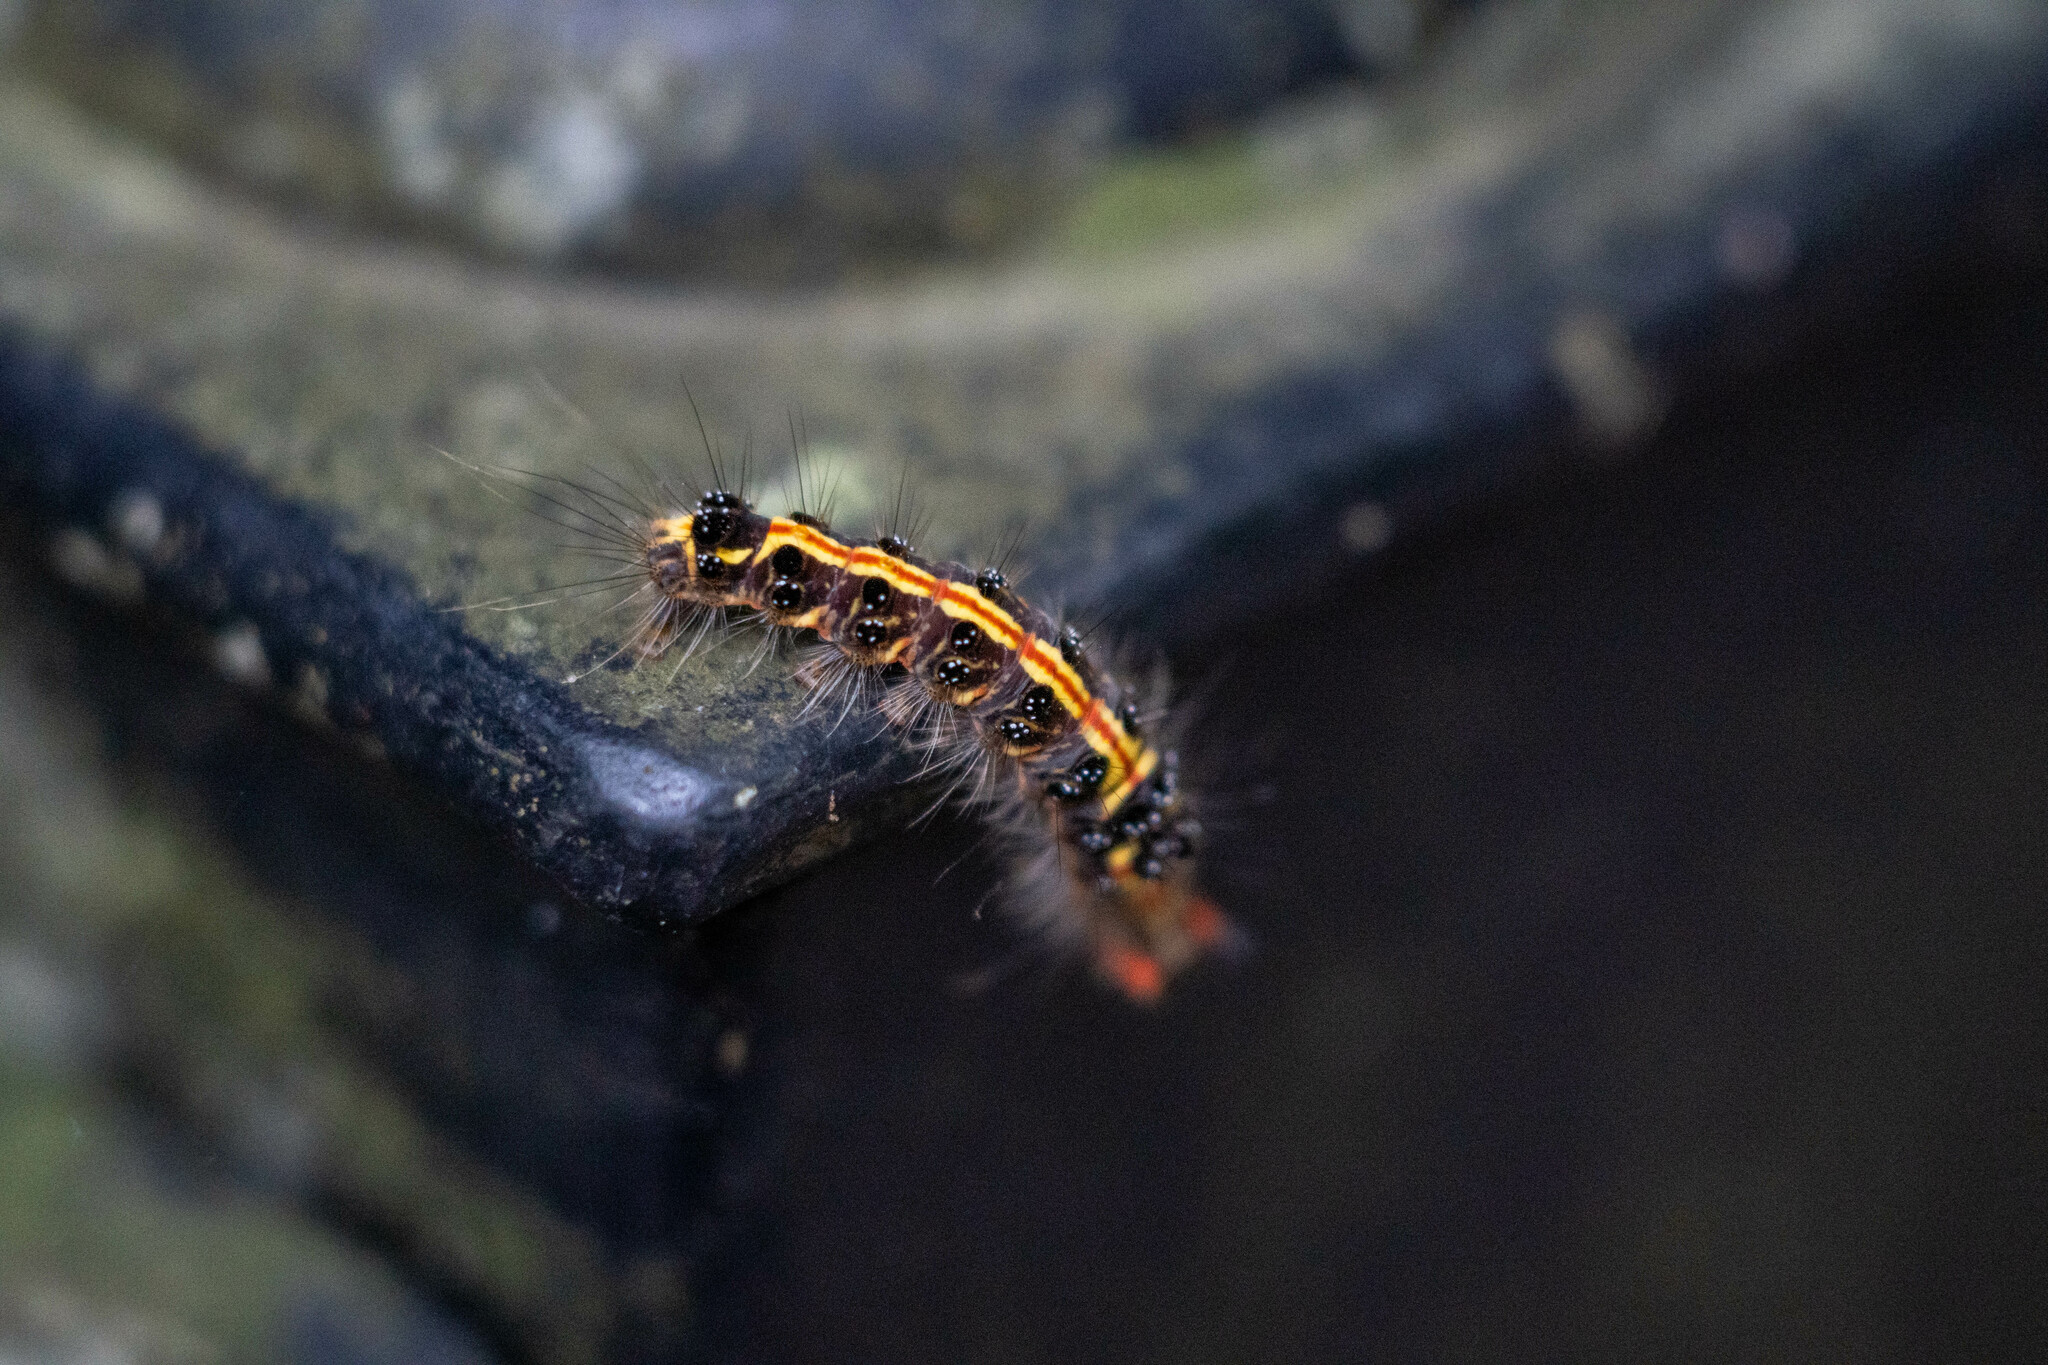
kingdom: Animalia
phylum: Arthropoda
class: Insecta
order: Lepidoptera
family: Erebidae
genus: Orvasca
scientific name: Orvasca subnotata
